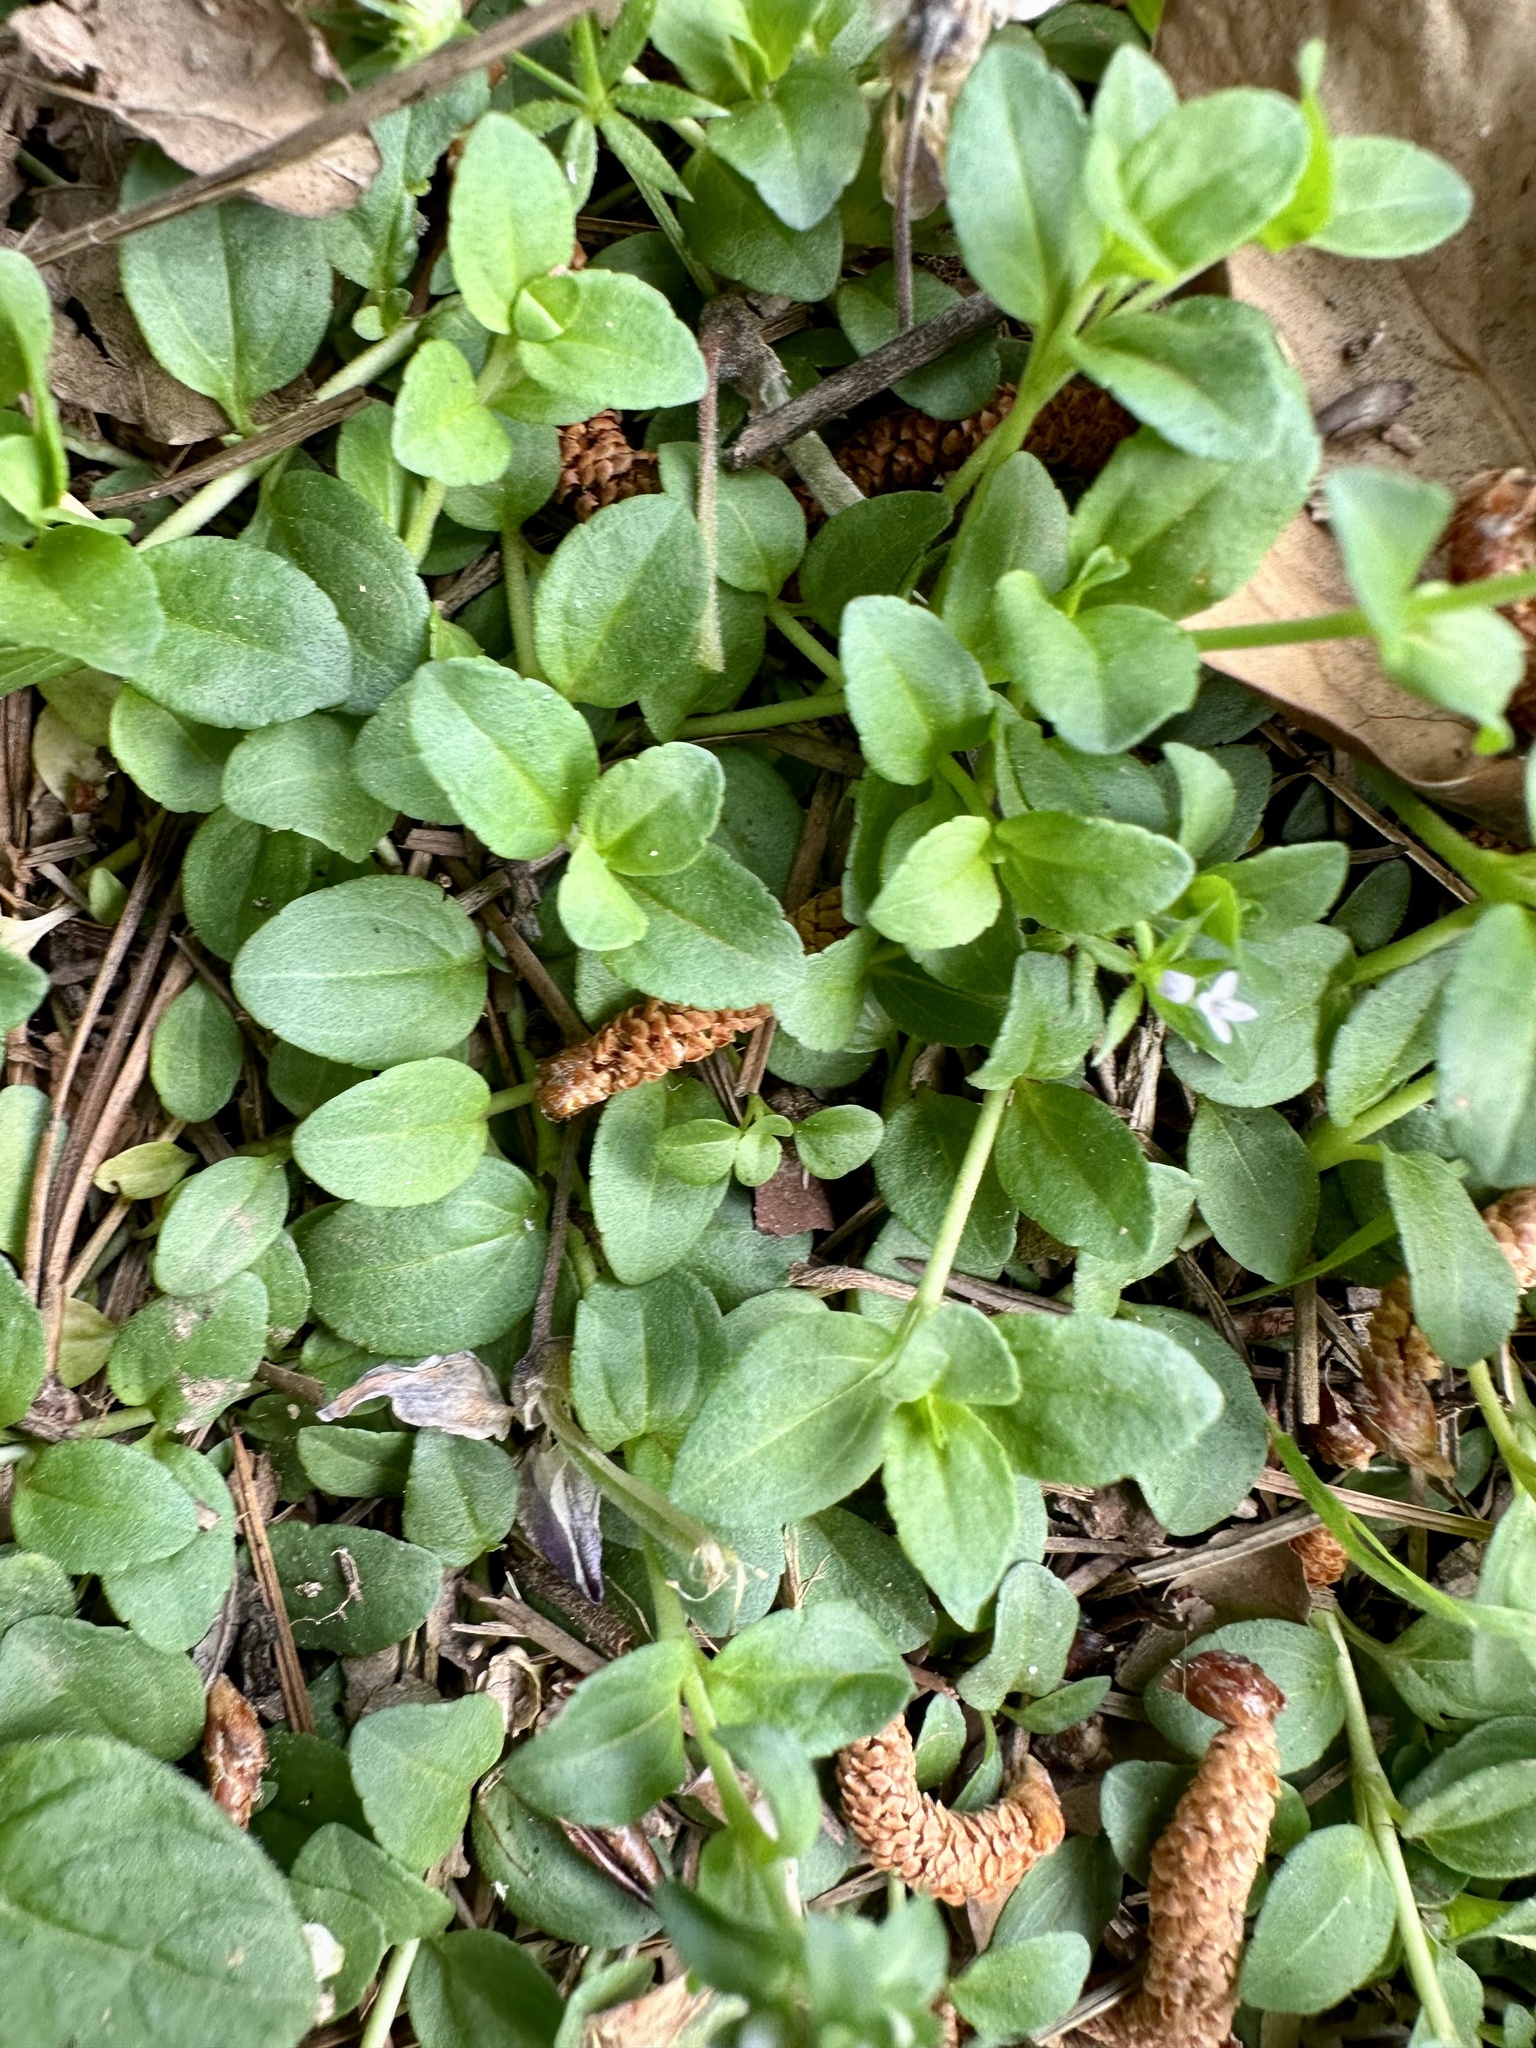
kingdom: Plantae
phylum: Tracheophyta
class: Magnoliopsida
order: Lamiales
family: Plantaginaceae
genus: Veronica
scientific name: Veronica serpyllifolia
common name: Thyme-leaved speedwell
